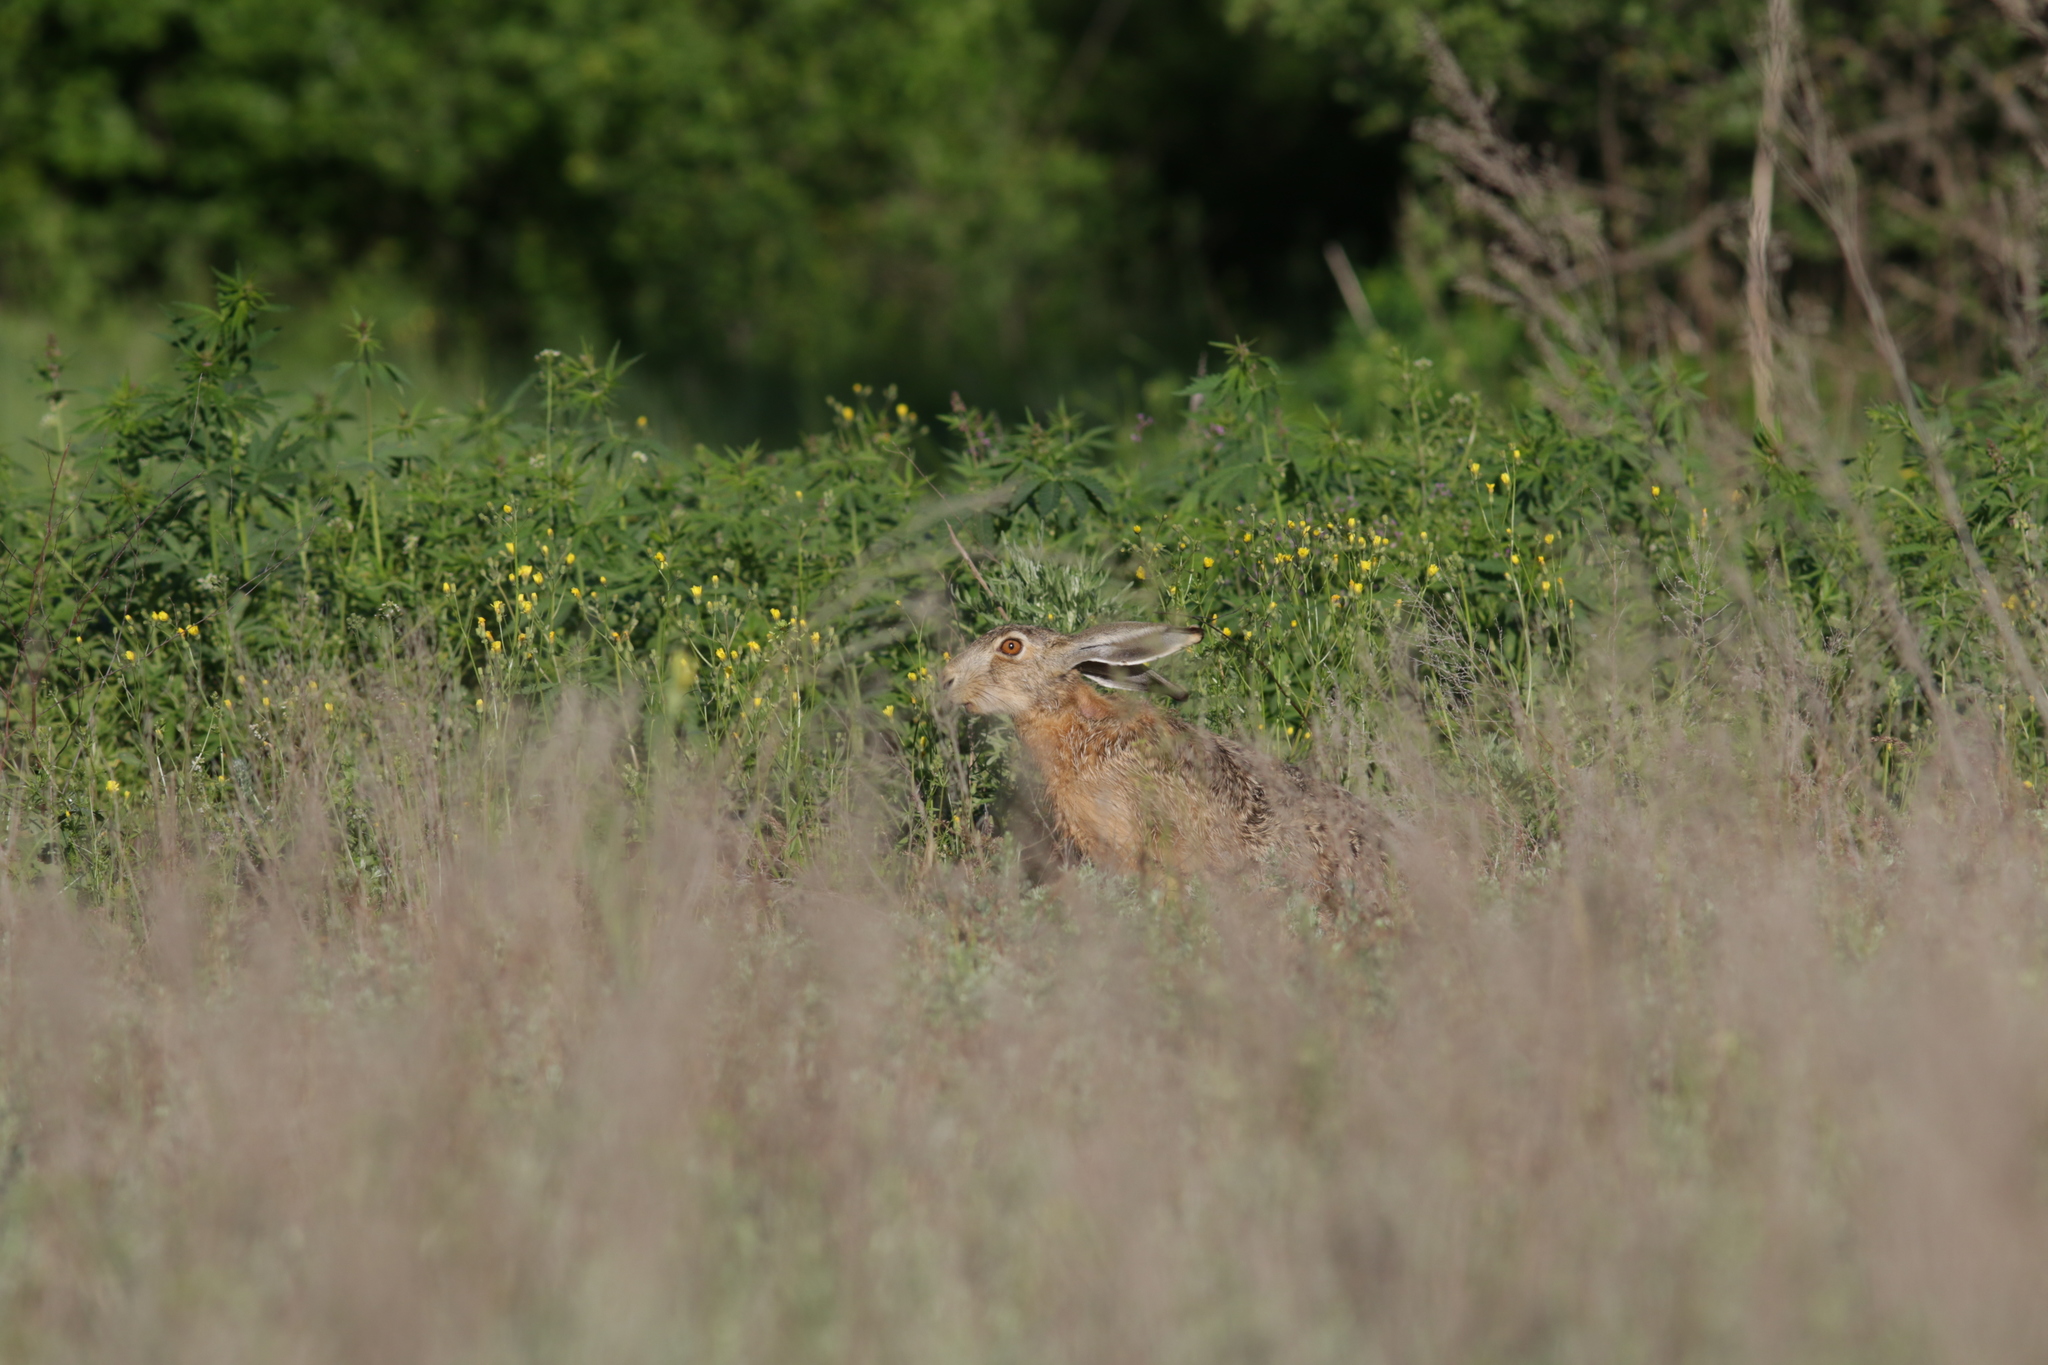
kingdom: Animalia
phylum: Chordata
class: Mammalia
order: Lagomorpha
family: Leporidae
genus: Lepus
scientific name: Lepus europaeus
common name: European hare
